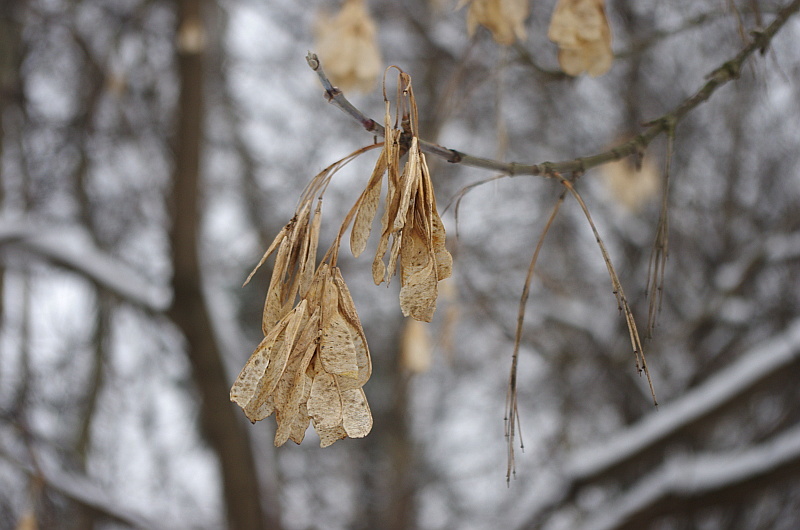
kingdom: Plantae
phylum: Tracheophyta
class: Magnoliopsida
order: Sapindales
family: Sapindaceae
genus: Acer
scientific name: Acer negundo
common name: Ashleaf maple
